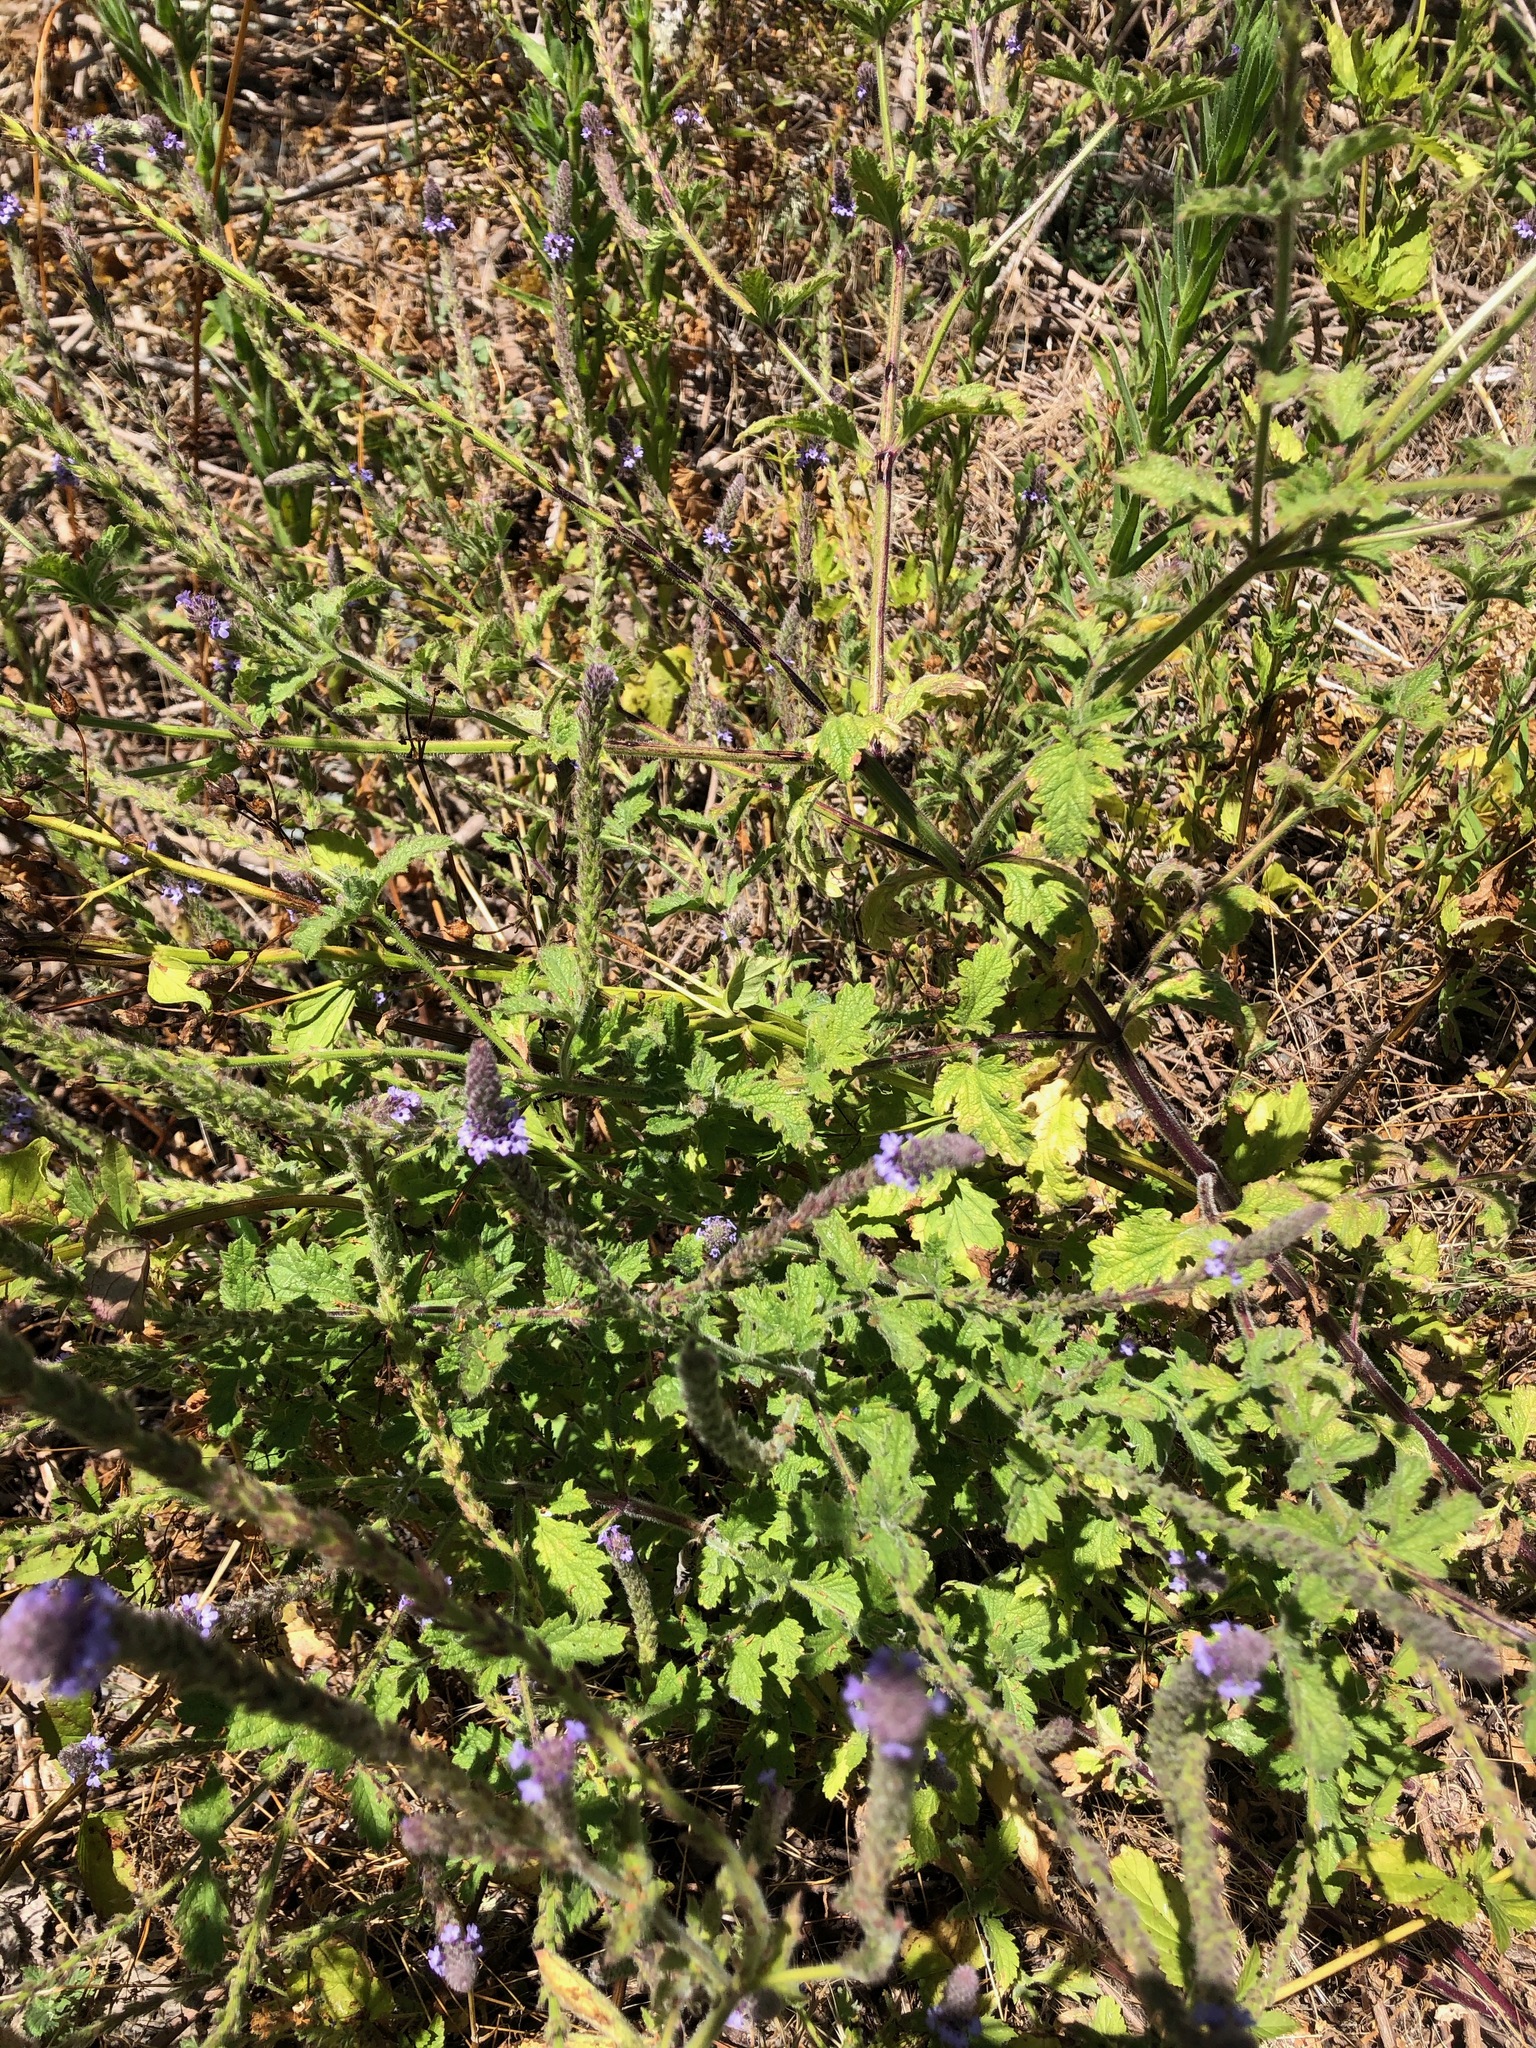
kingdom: Plantae
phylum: Tracheophyta
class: Magnoliopsida
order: Lamiales
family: Verbenaceae
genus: Verbena
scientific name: Verbena lasiostachys
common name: Vervain
